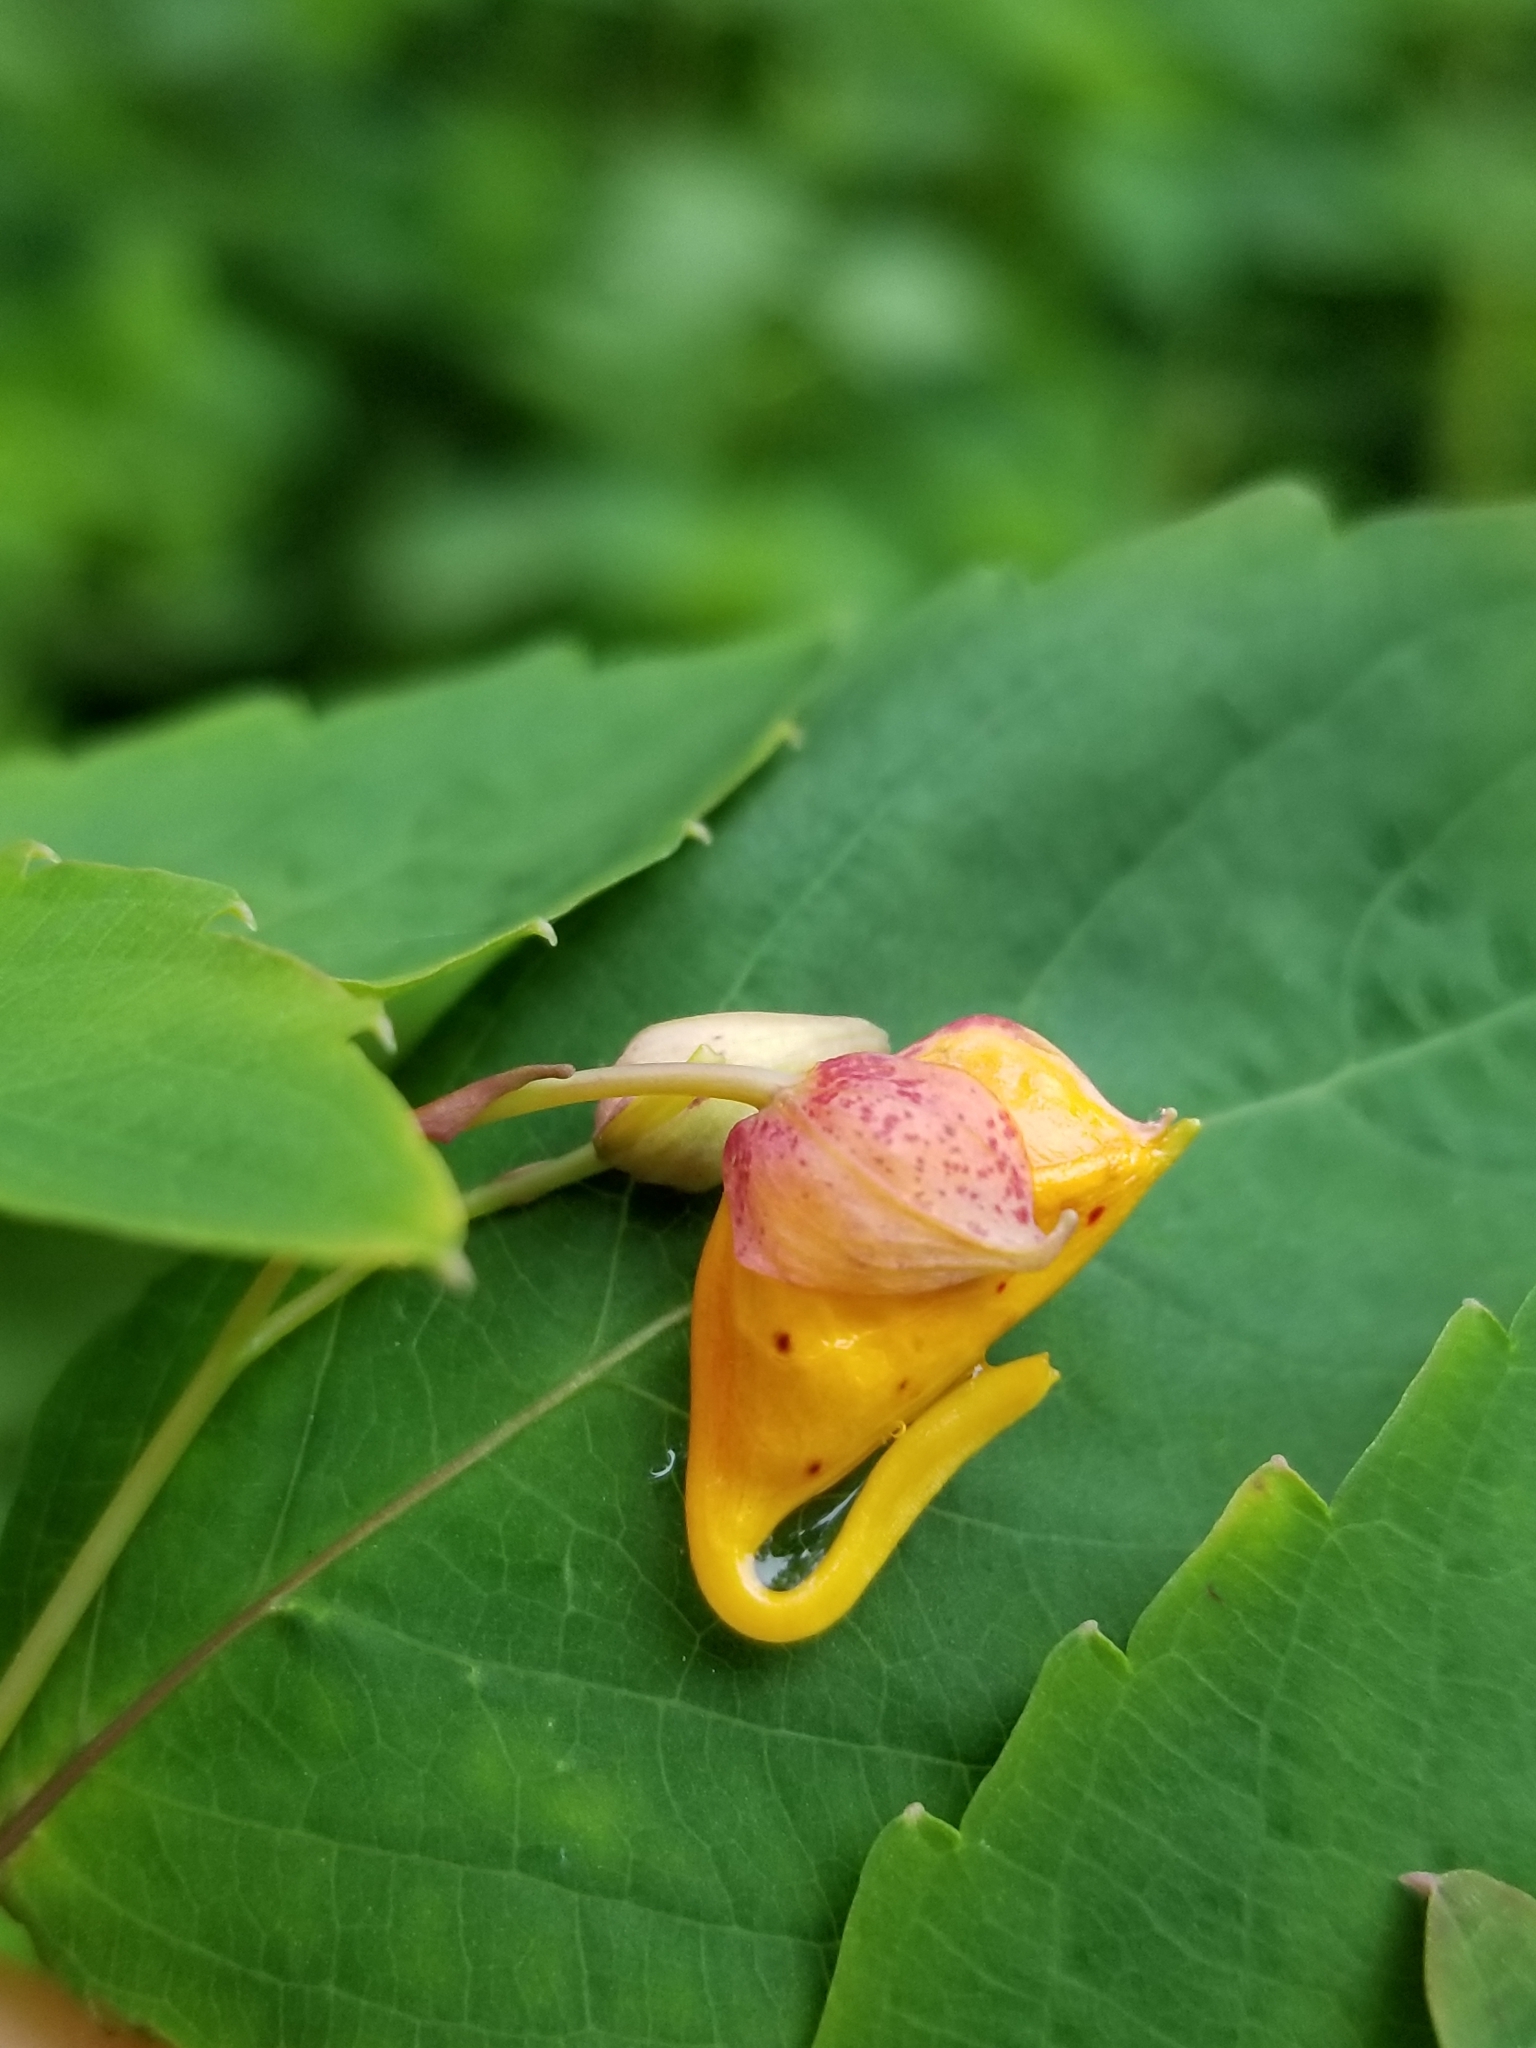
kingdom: Plantae
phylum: Tracheophyta
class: Magnoliopsida
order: Ericales
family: Balsaminaceae
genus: Impatiens
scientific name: Impatiens capensis
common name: Orange balsam
